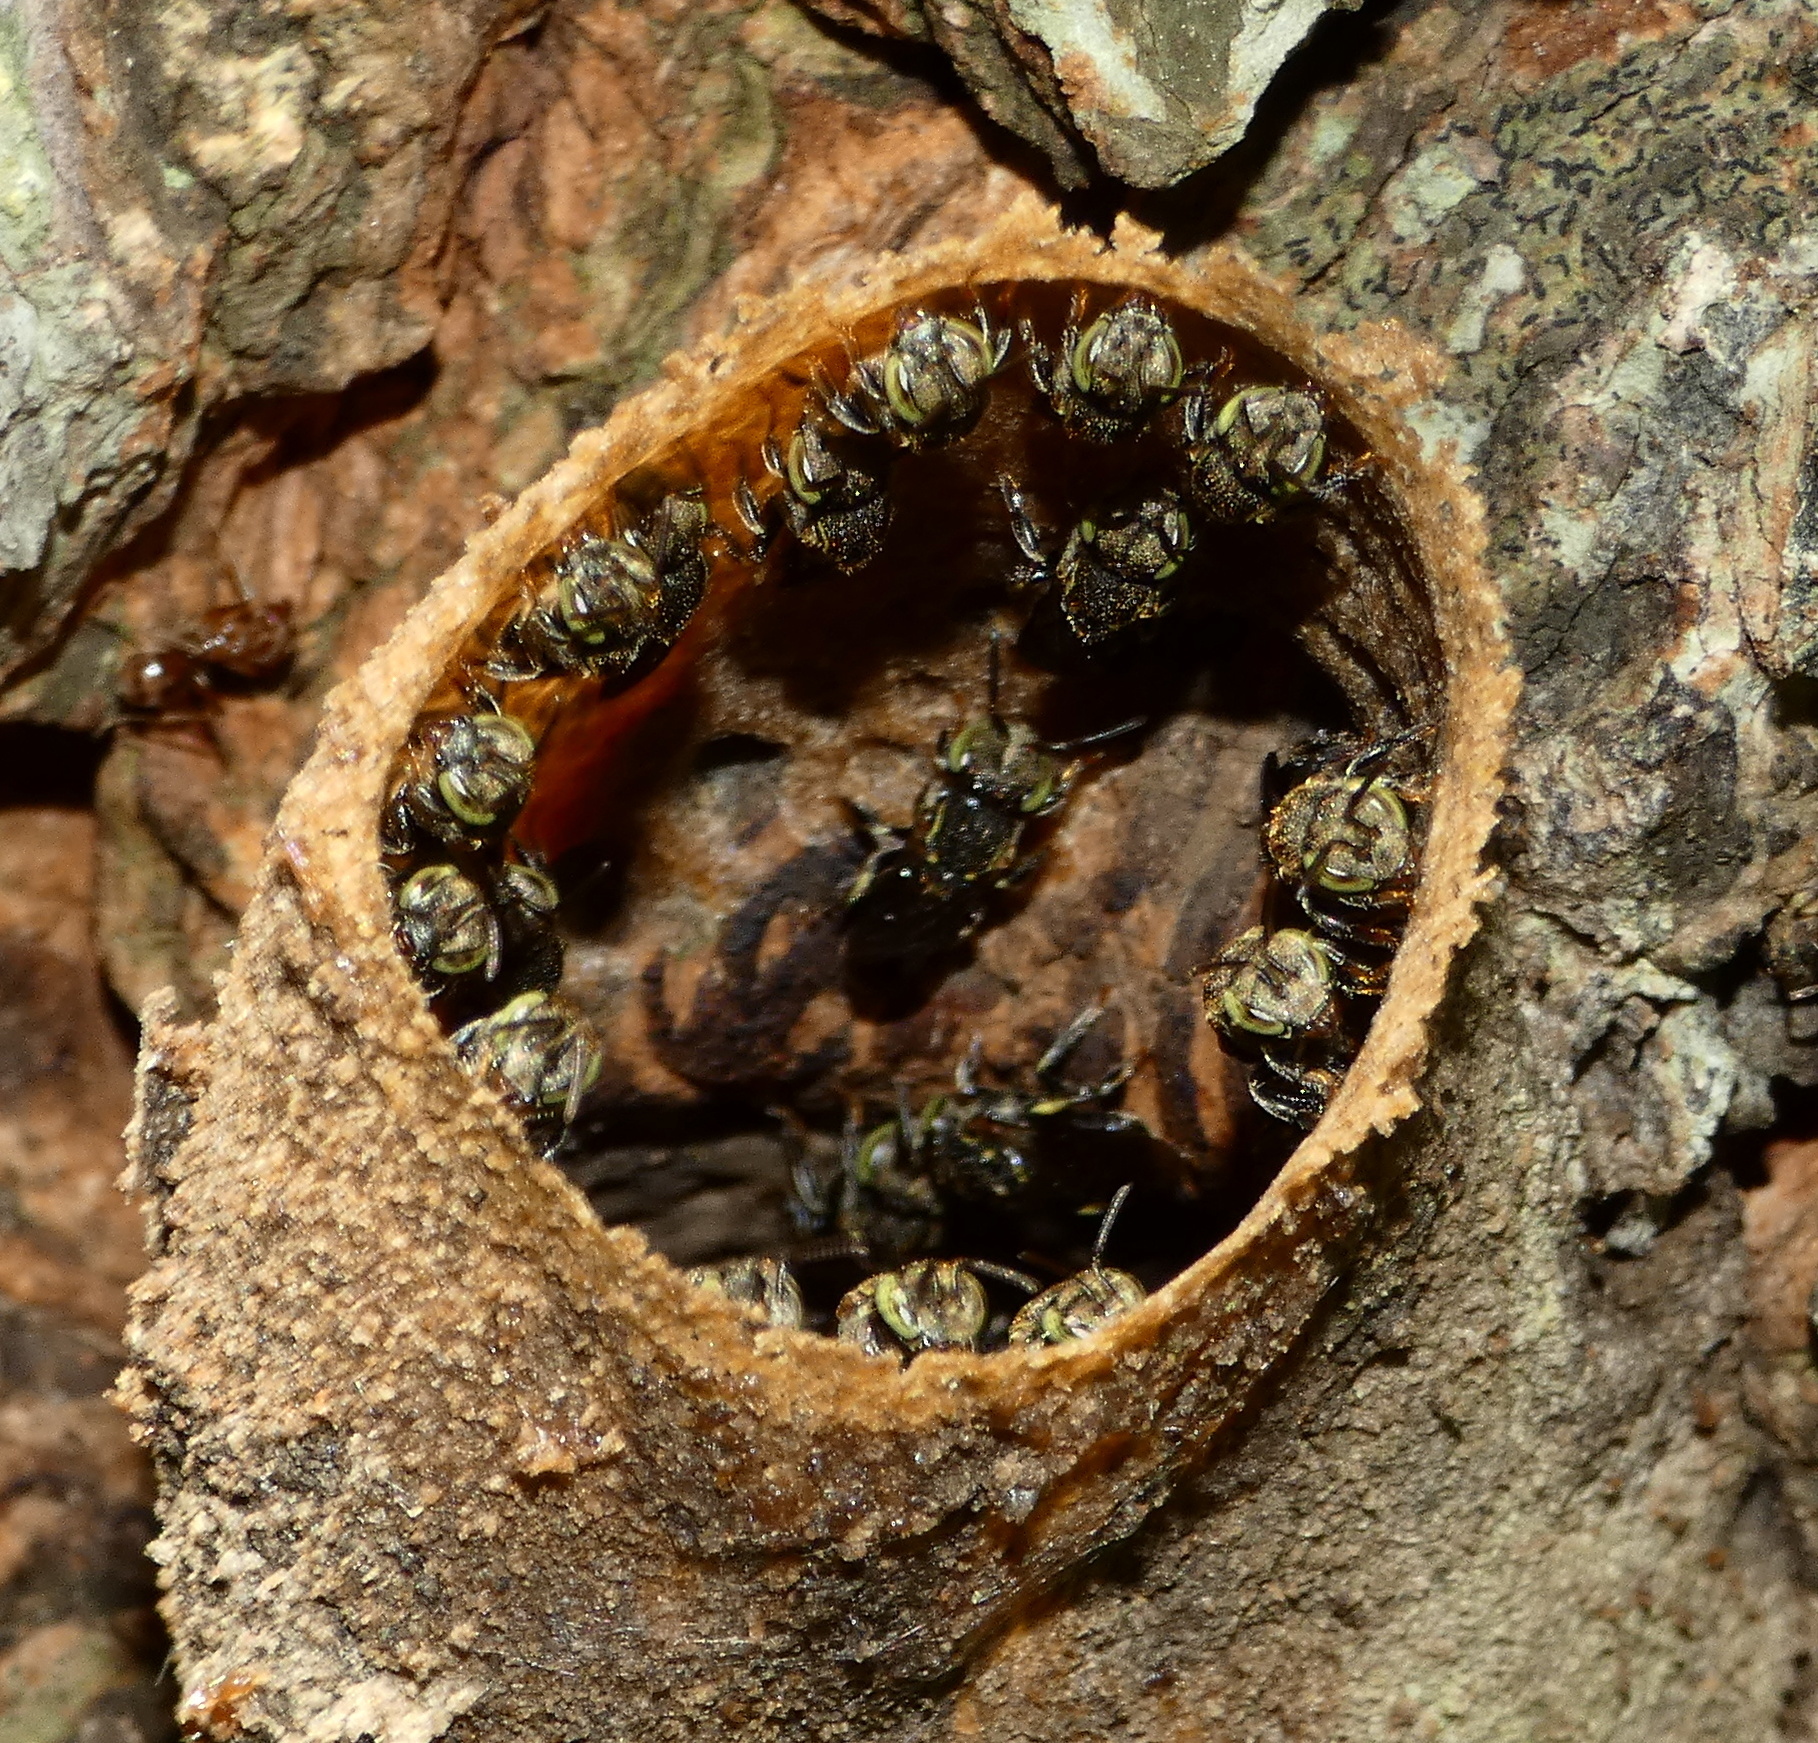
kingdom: Animalia
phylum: Arthropoda
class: Insecta
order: Hymenoptera
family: Apidae
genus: Nannotrigona
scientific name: Nannotrigona testaceicornis
